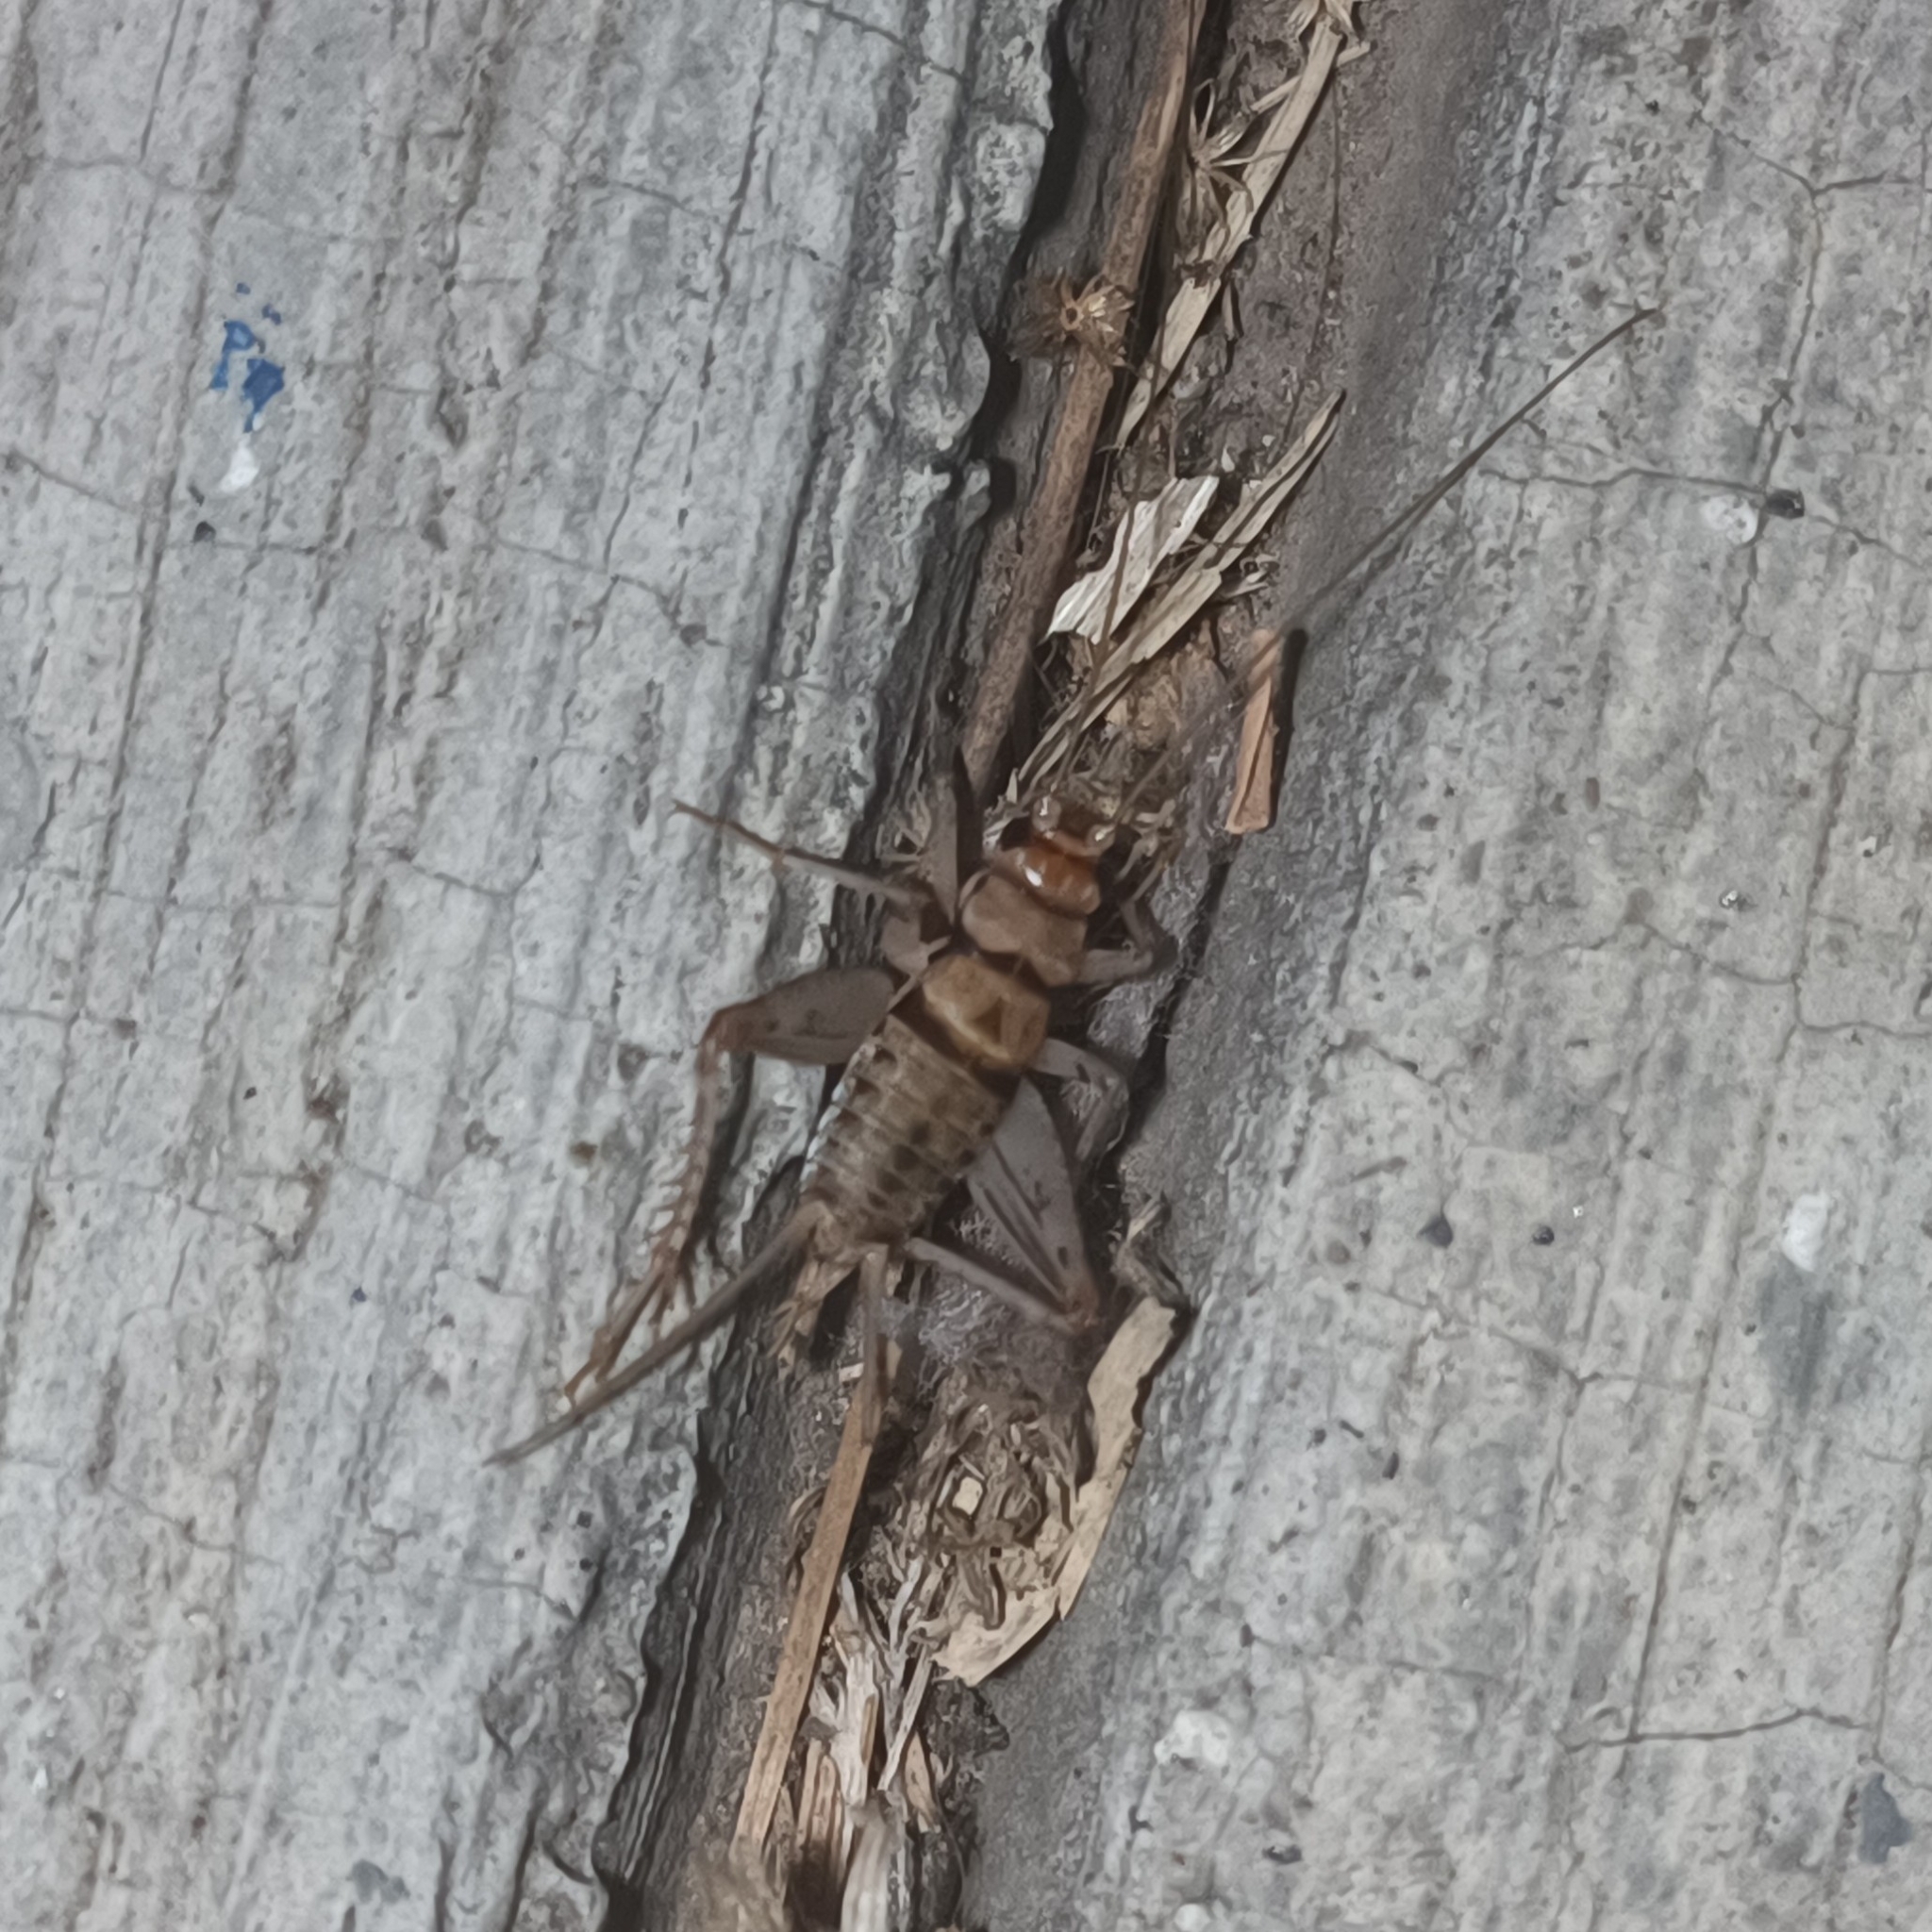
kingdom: Animalia
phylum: Arthropoda
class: Insecta
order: Orthoptera
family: Gryllidae
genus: Gryllodes
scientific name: Gryllodes sigillatus
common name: Tropical house cricket
